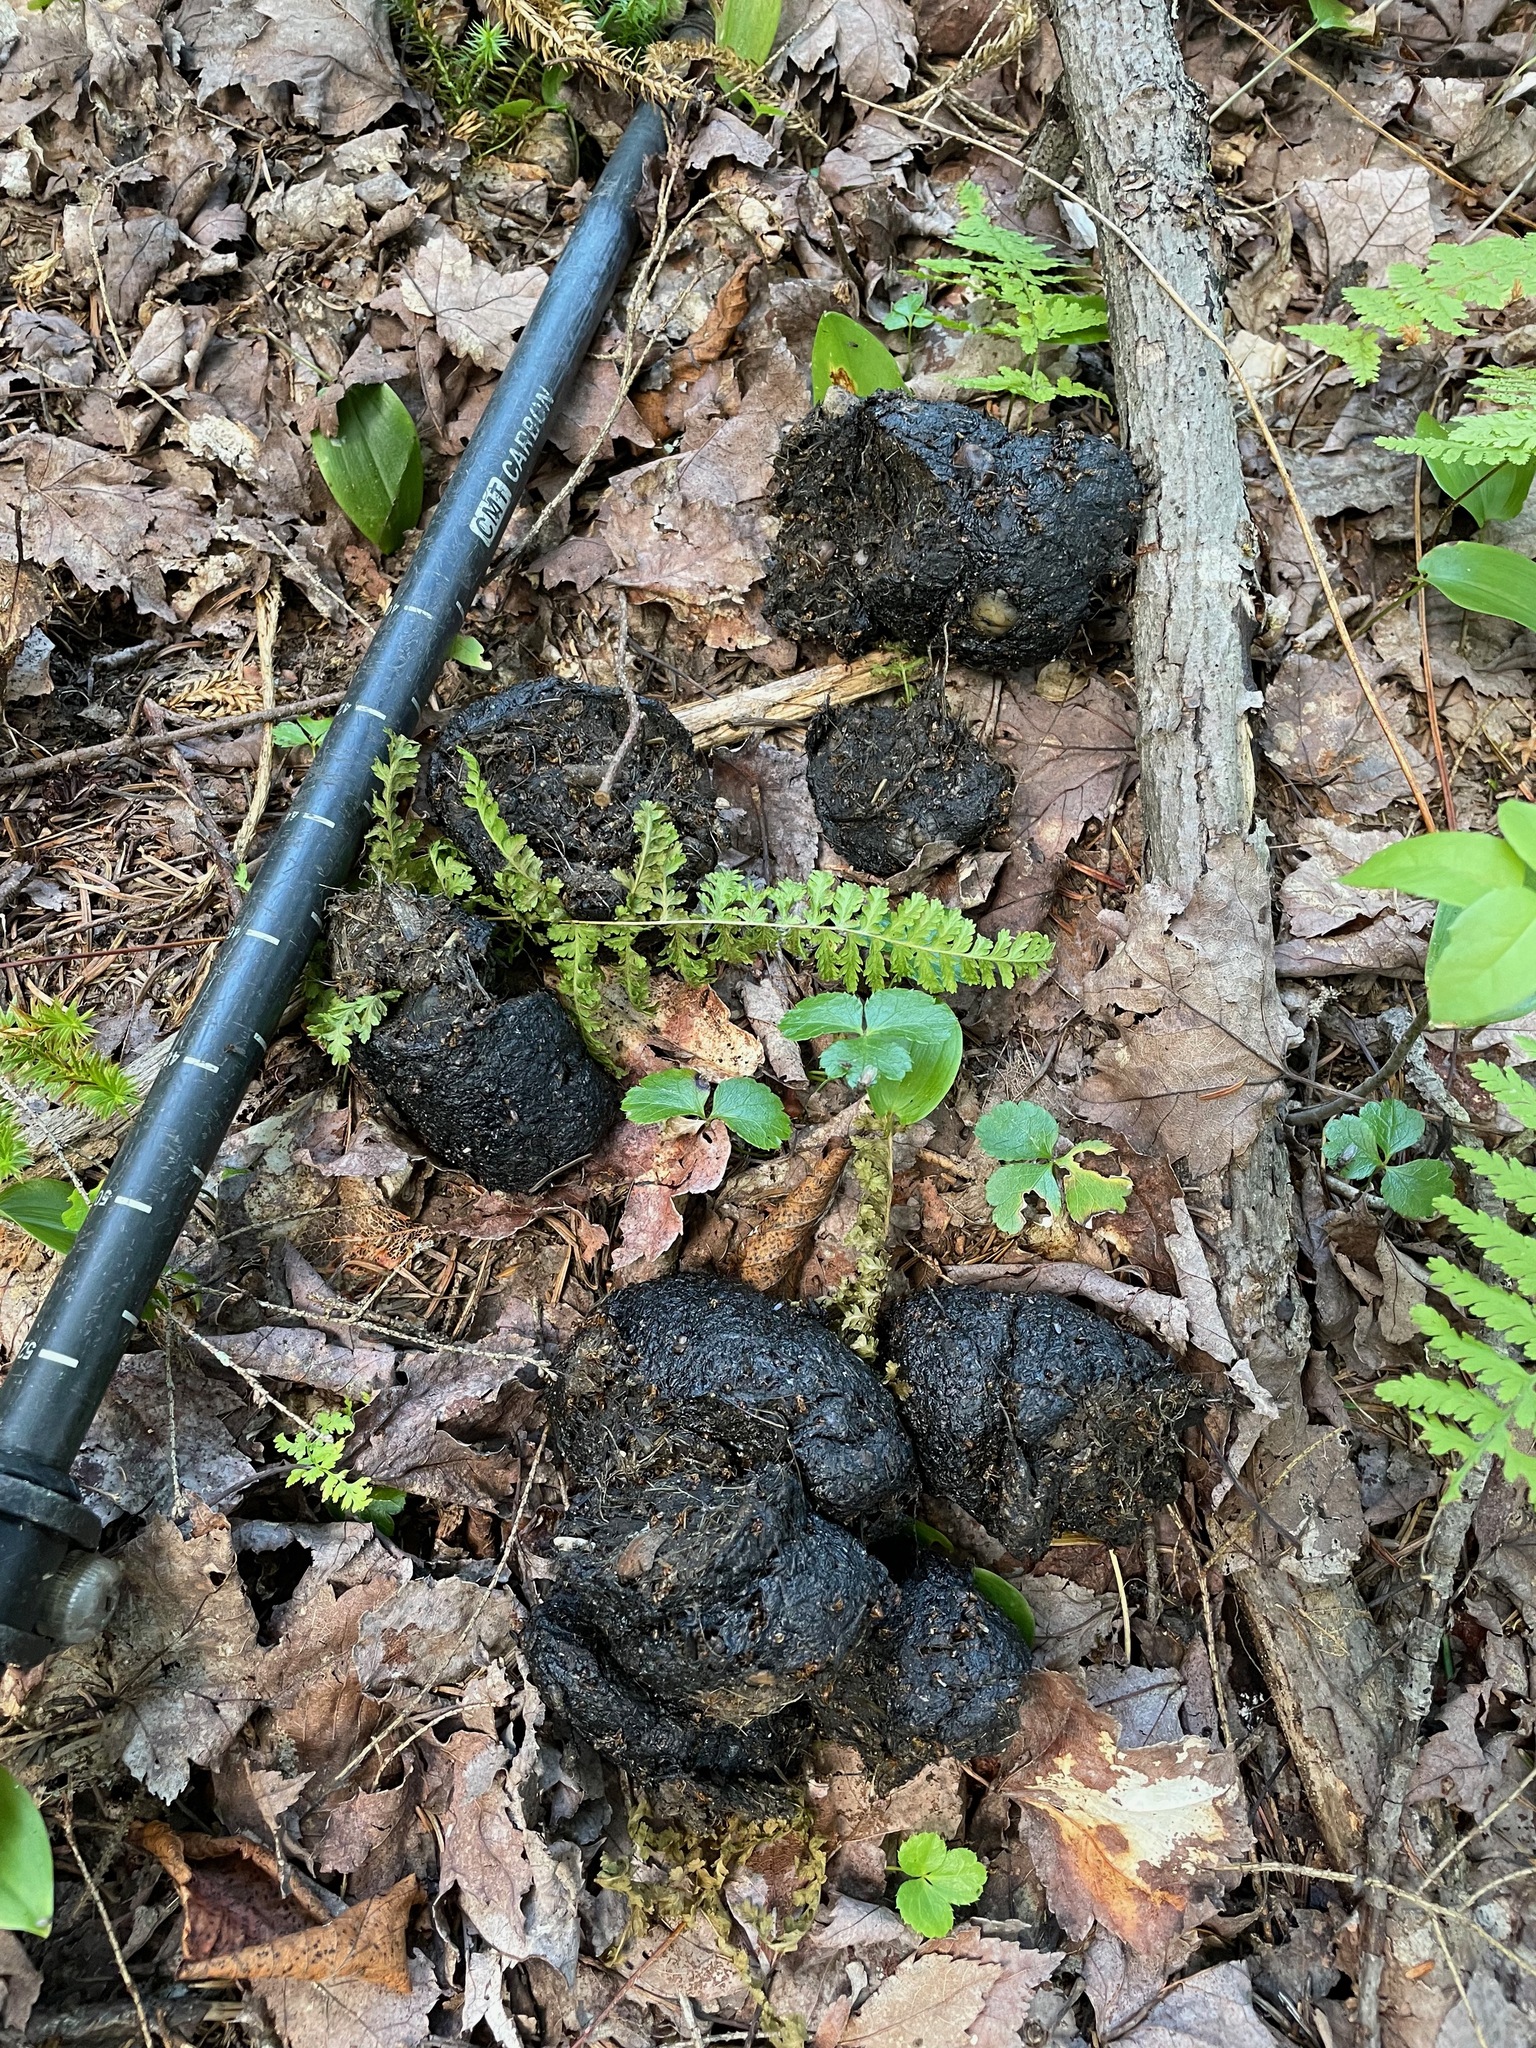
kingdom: Animalia
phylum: Chordata
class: Mammalia
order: Carnivora
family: Ursidae
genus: Ursus
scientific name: Ursus americanus
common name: American black bear
